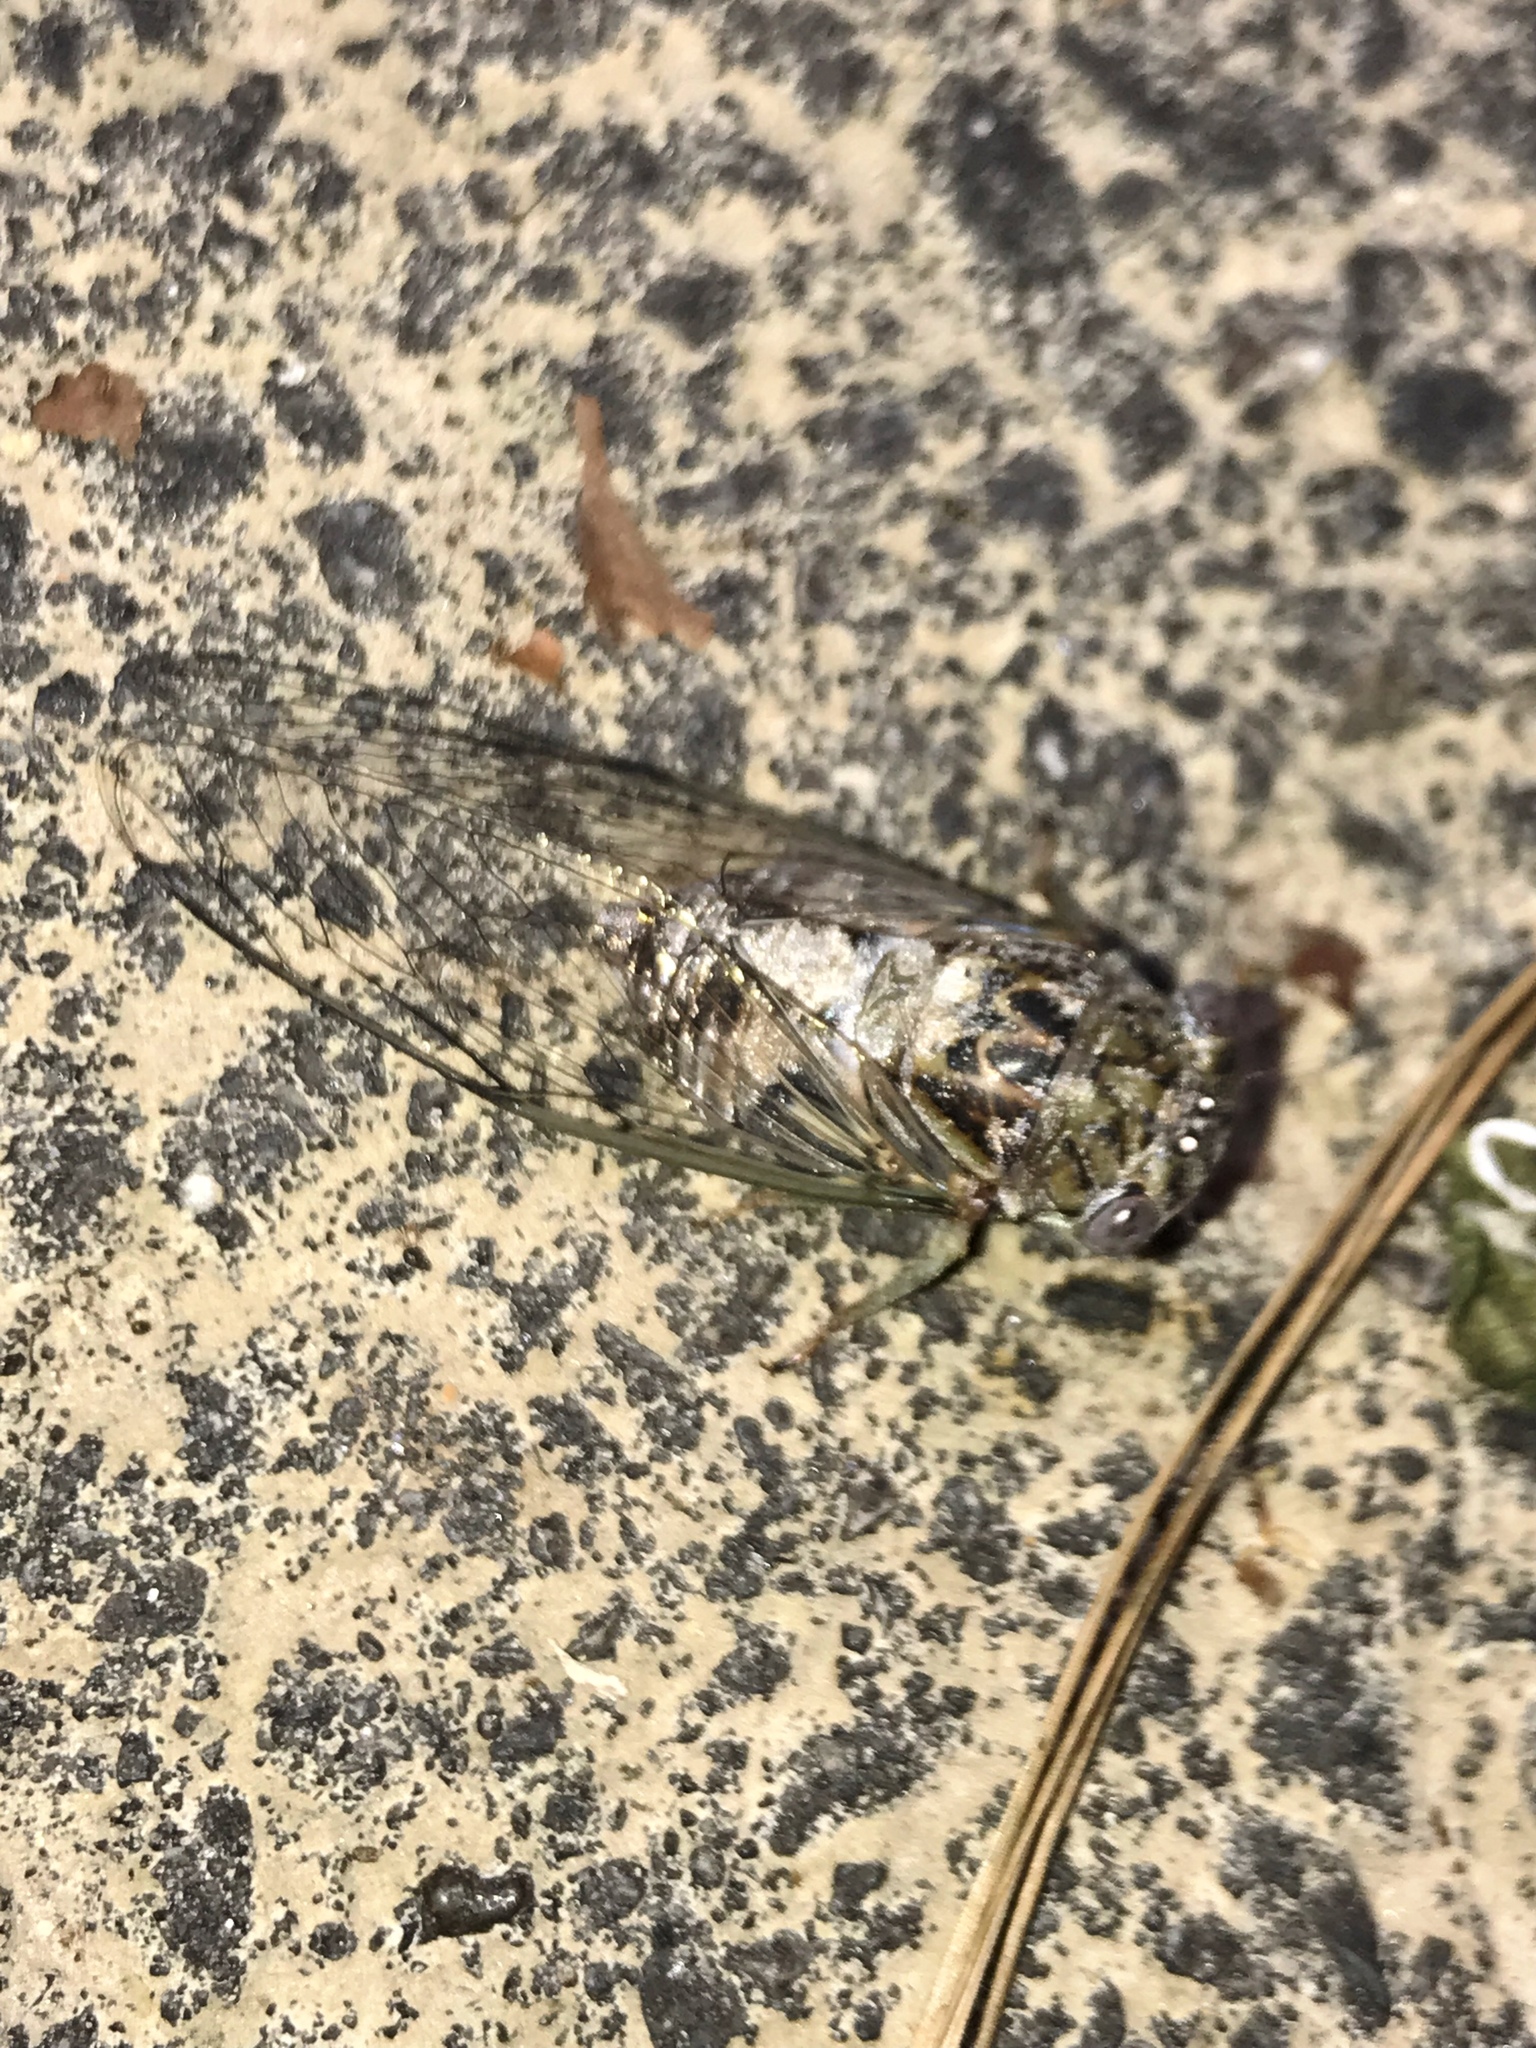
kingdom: Animalia
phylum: Arthropoda
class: Insecta
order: Hemiptera
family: Cicadidae
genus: Diceroprocta
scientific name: Diceroprocta vitripennis
